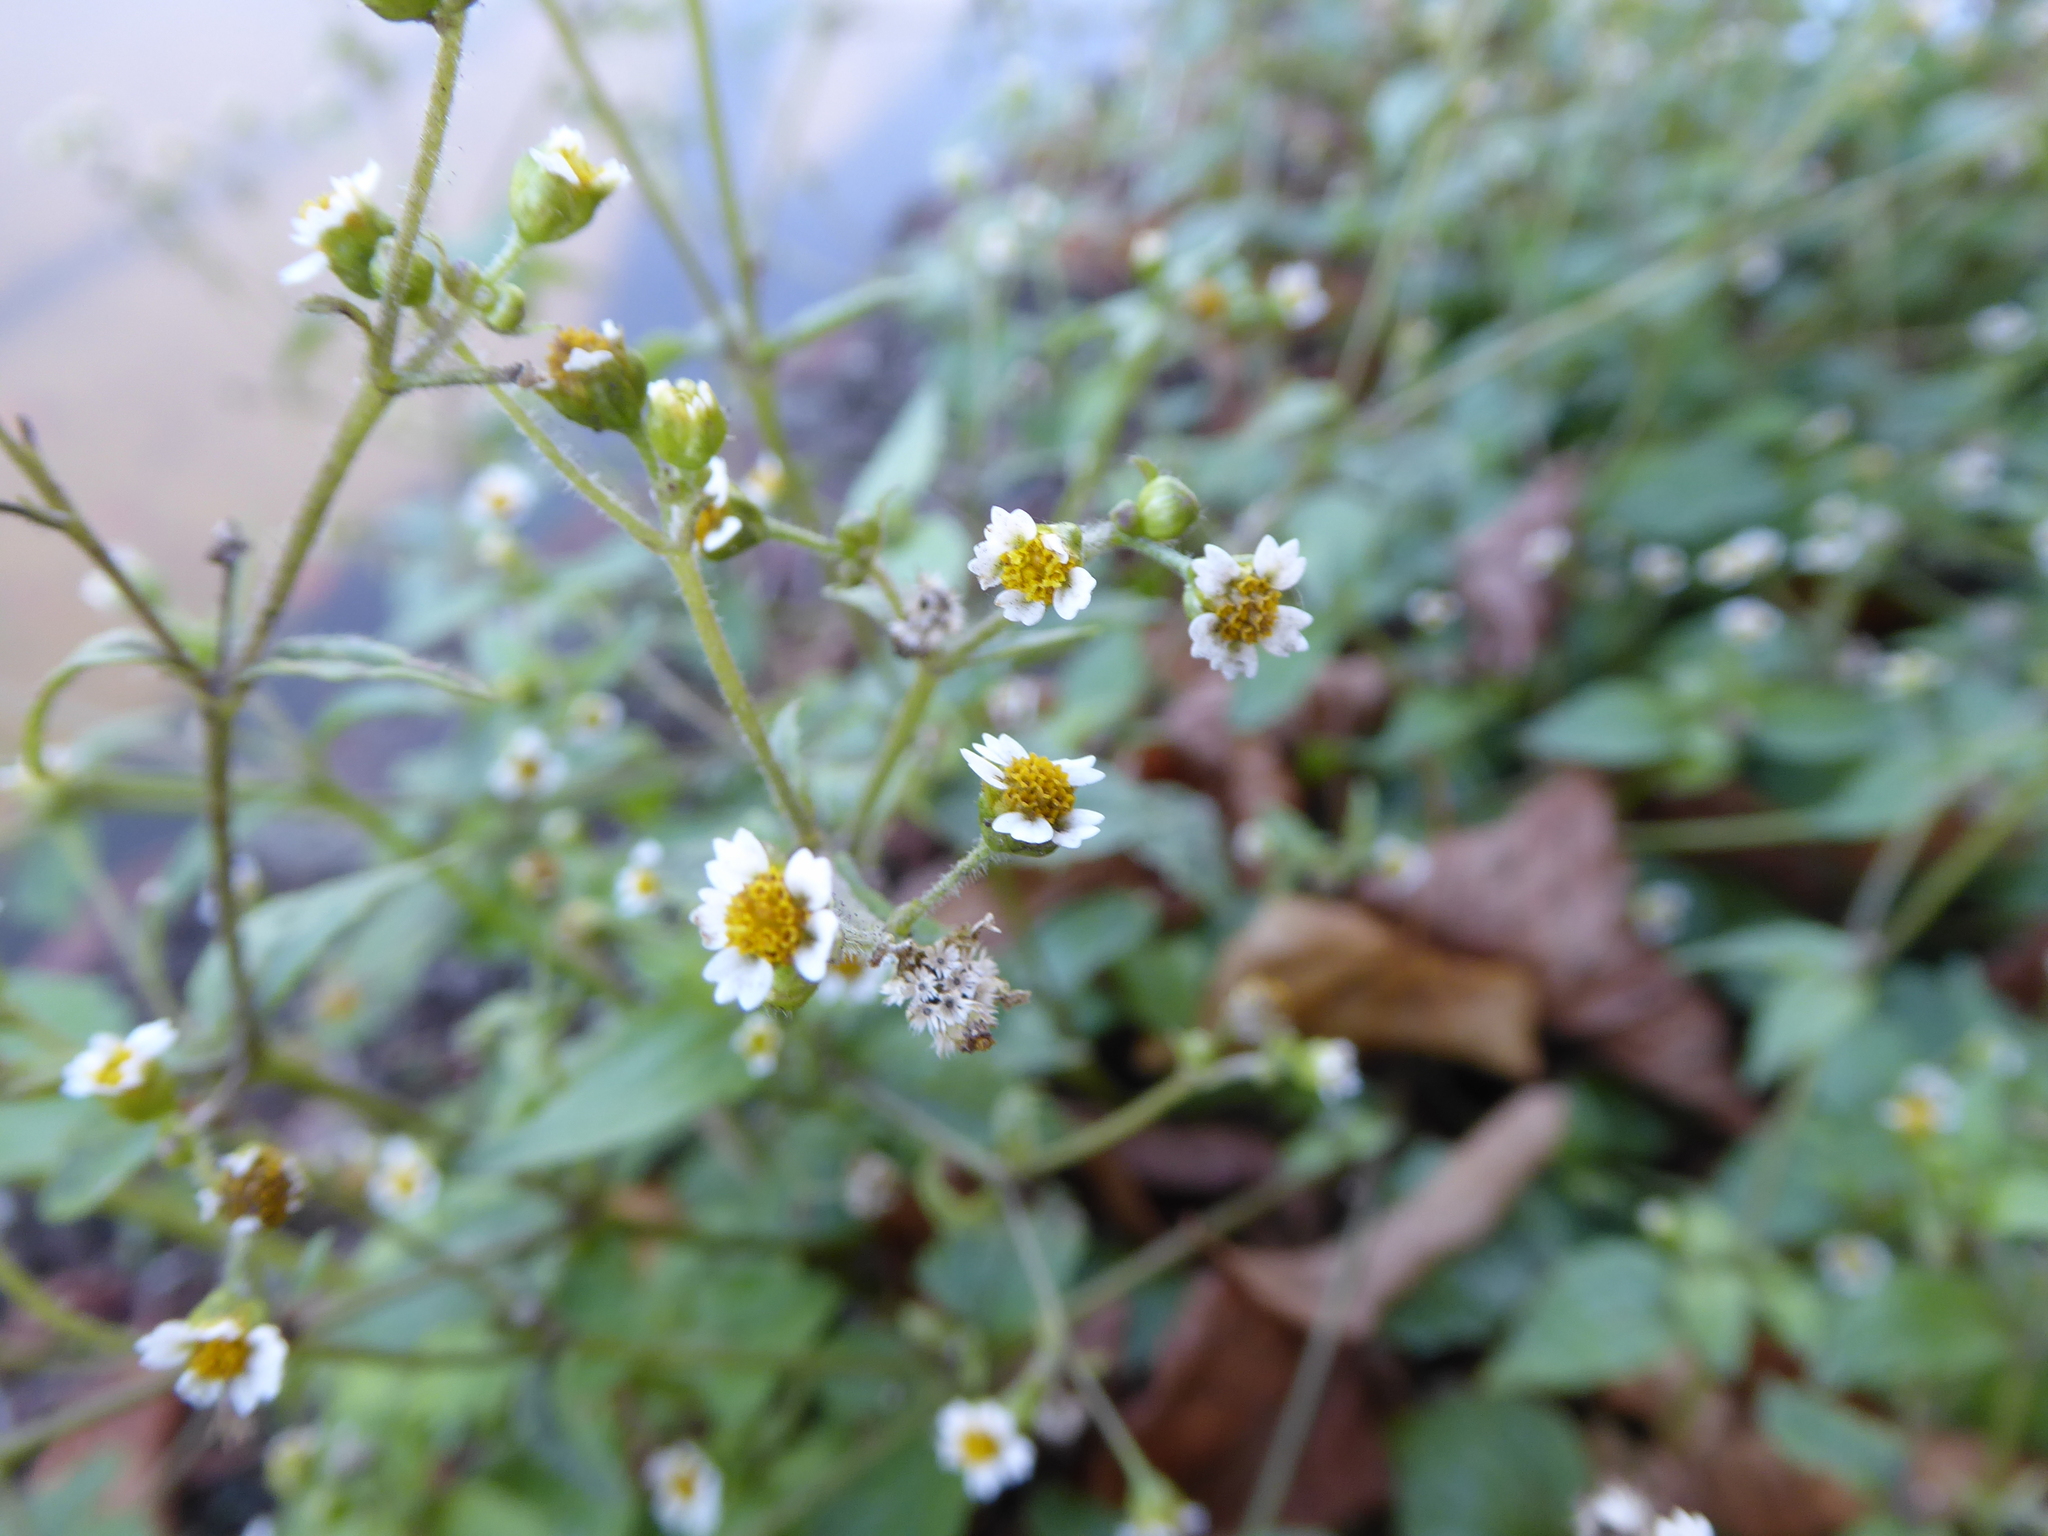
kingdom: Plantae
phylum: Tracheophyta
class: Magnoliopsida
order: Asterales
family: Asteraceae
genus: Galinsoga
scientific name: Galinsoga quadriradiata
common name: Shaggy soldier
